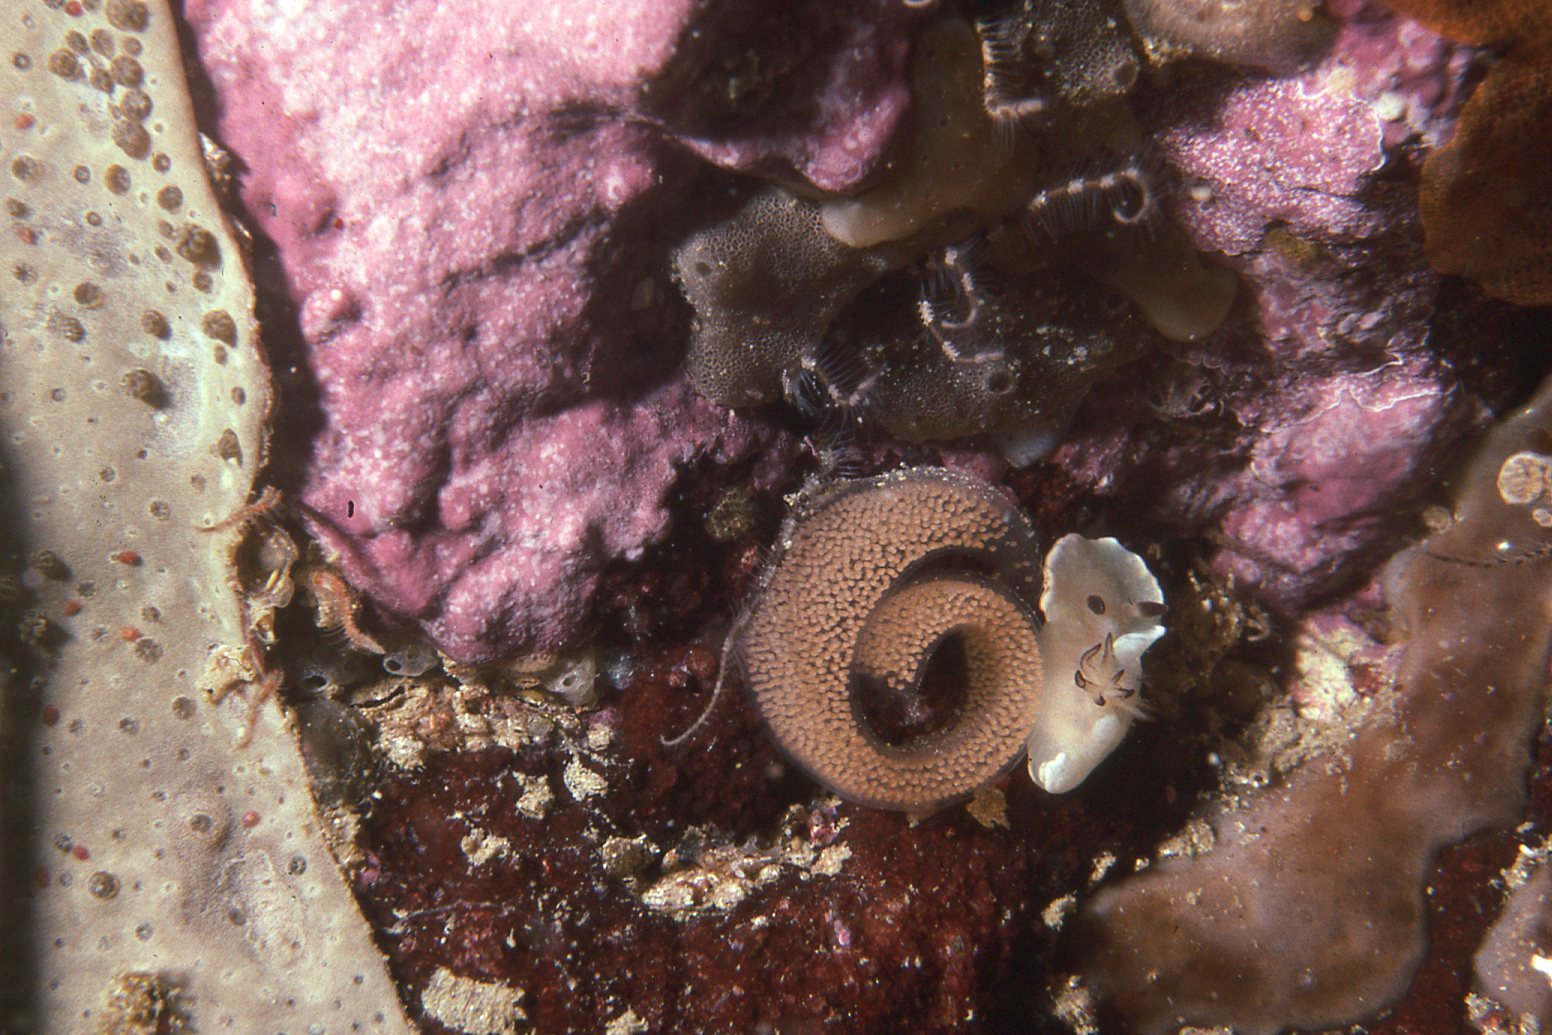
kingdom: Animalia
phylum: Mollusca
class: Gastropoda
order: Nudibranchia
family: Chromodorididae
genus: Glossodoris
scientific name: Glossodoris angasi
